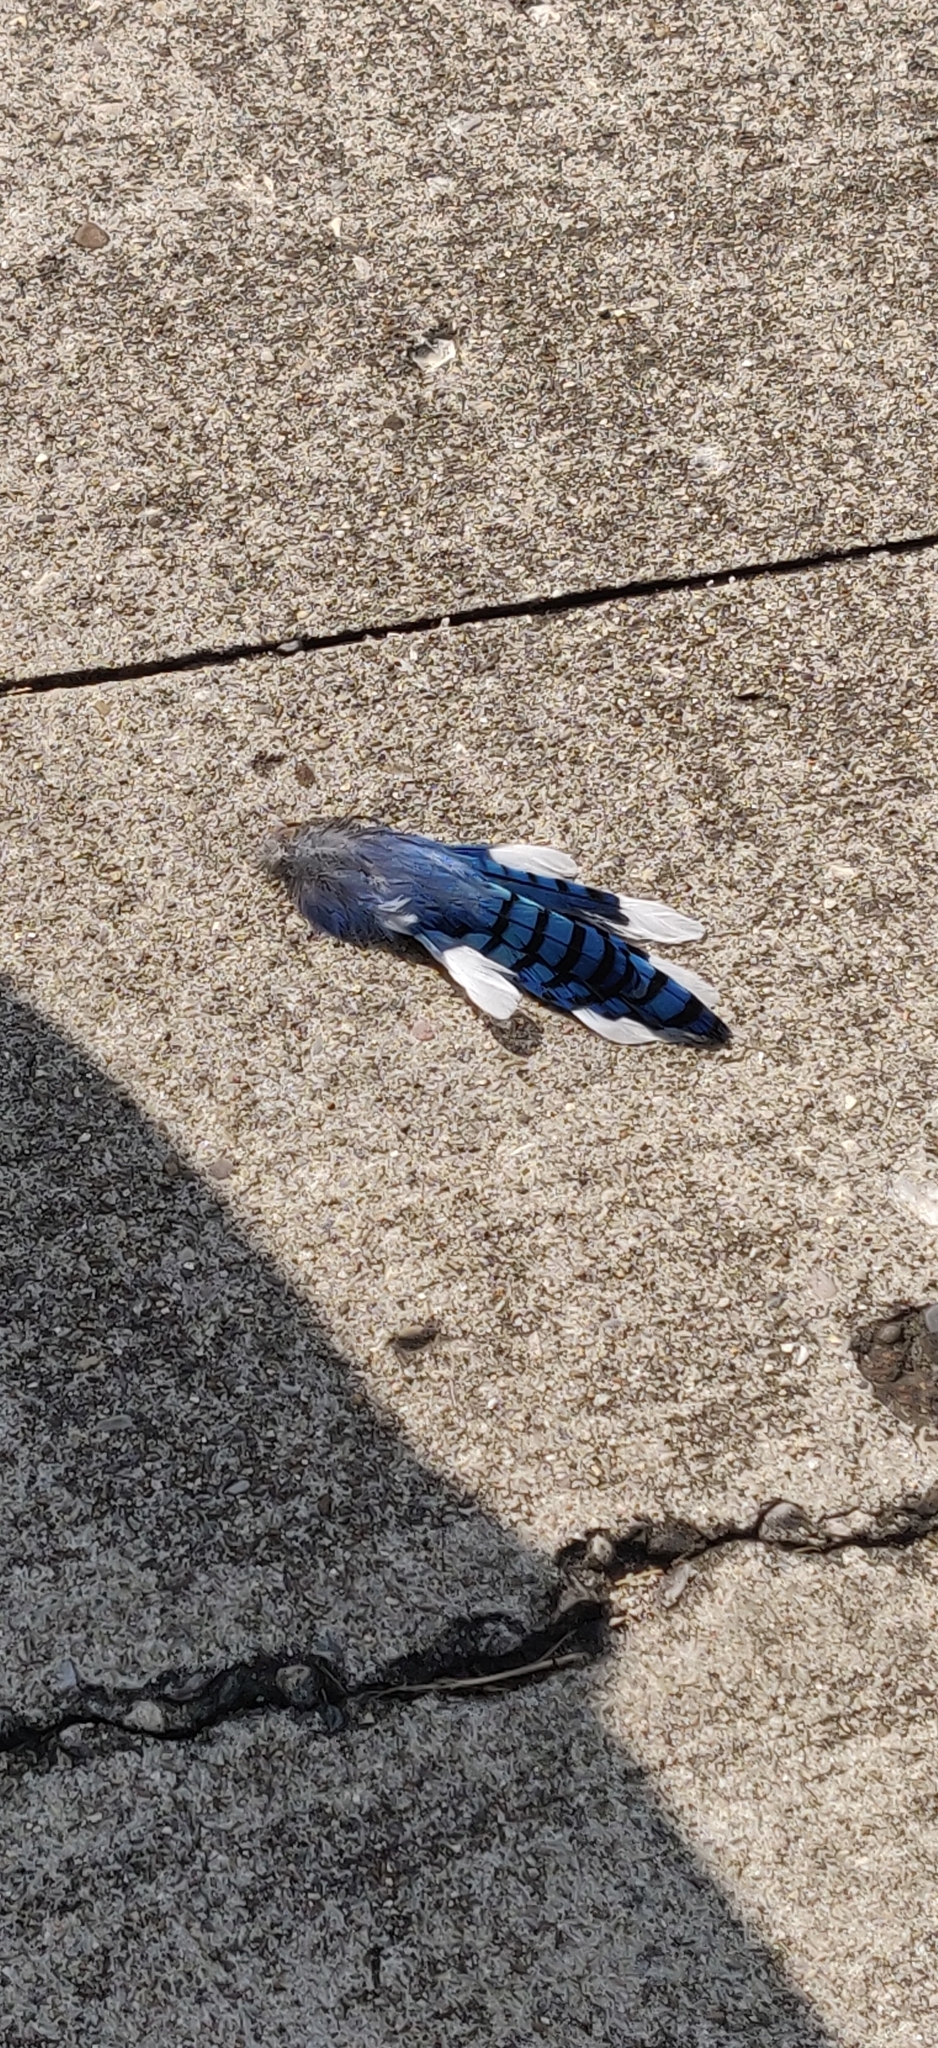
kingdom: Animalia
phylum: Chordata
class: Aves
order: Passeriformes
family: Corvidae
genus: Cyanocitta
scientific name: Cyanocitta cristata
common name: Blue jay
